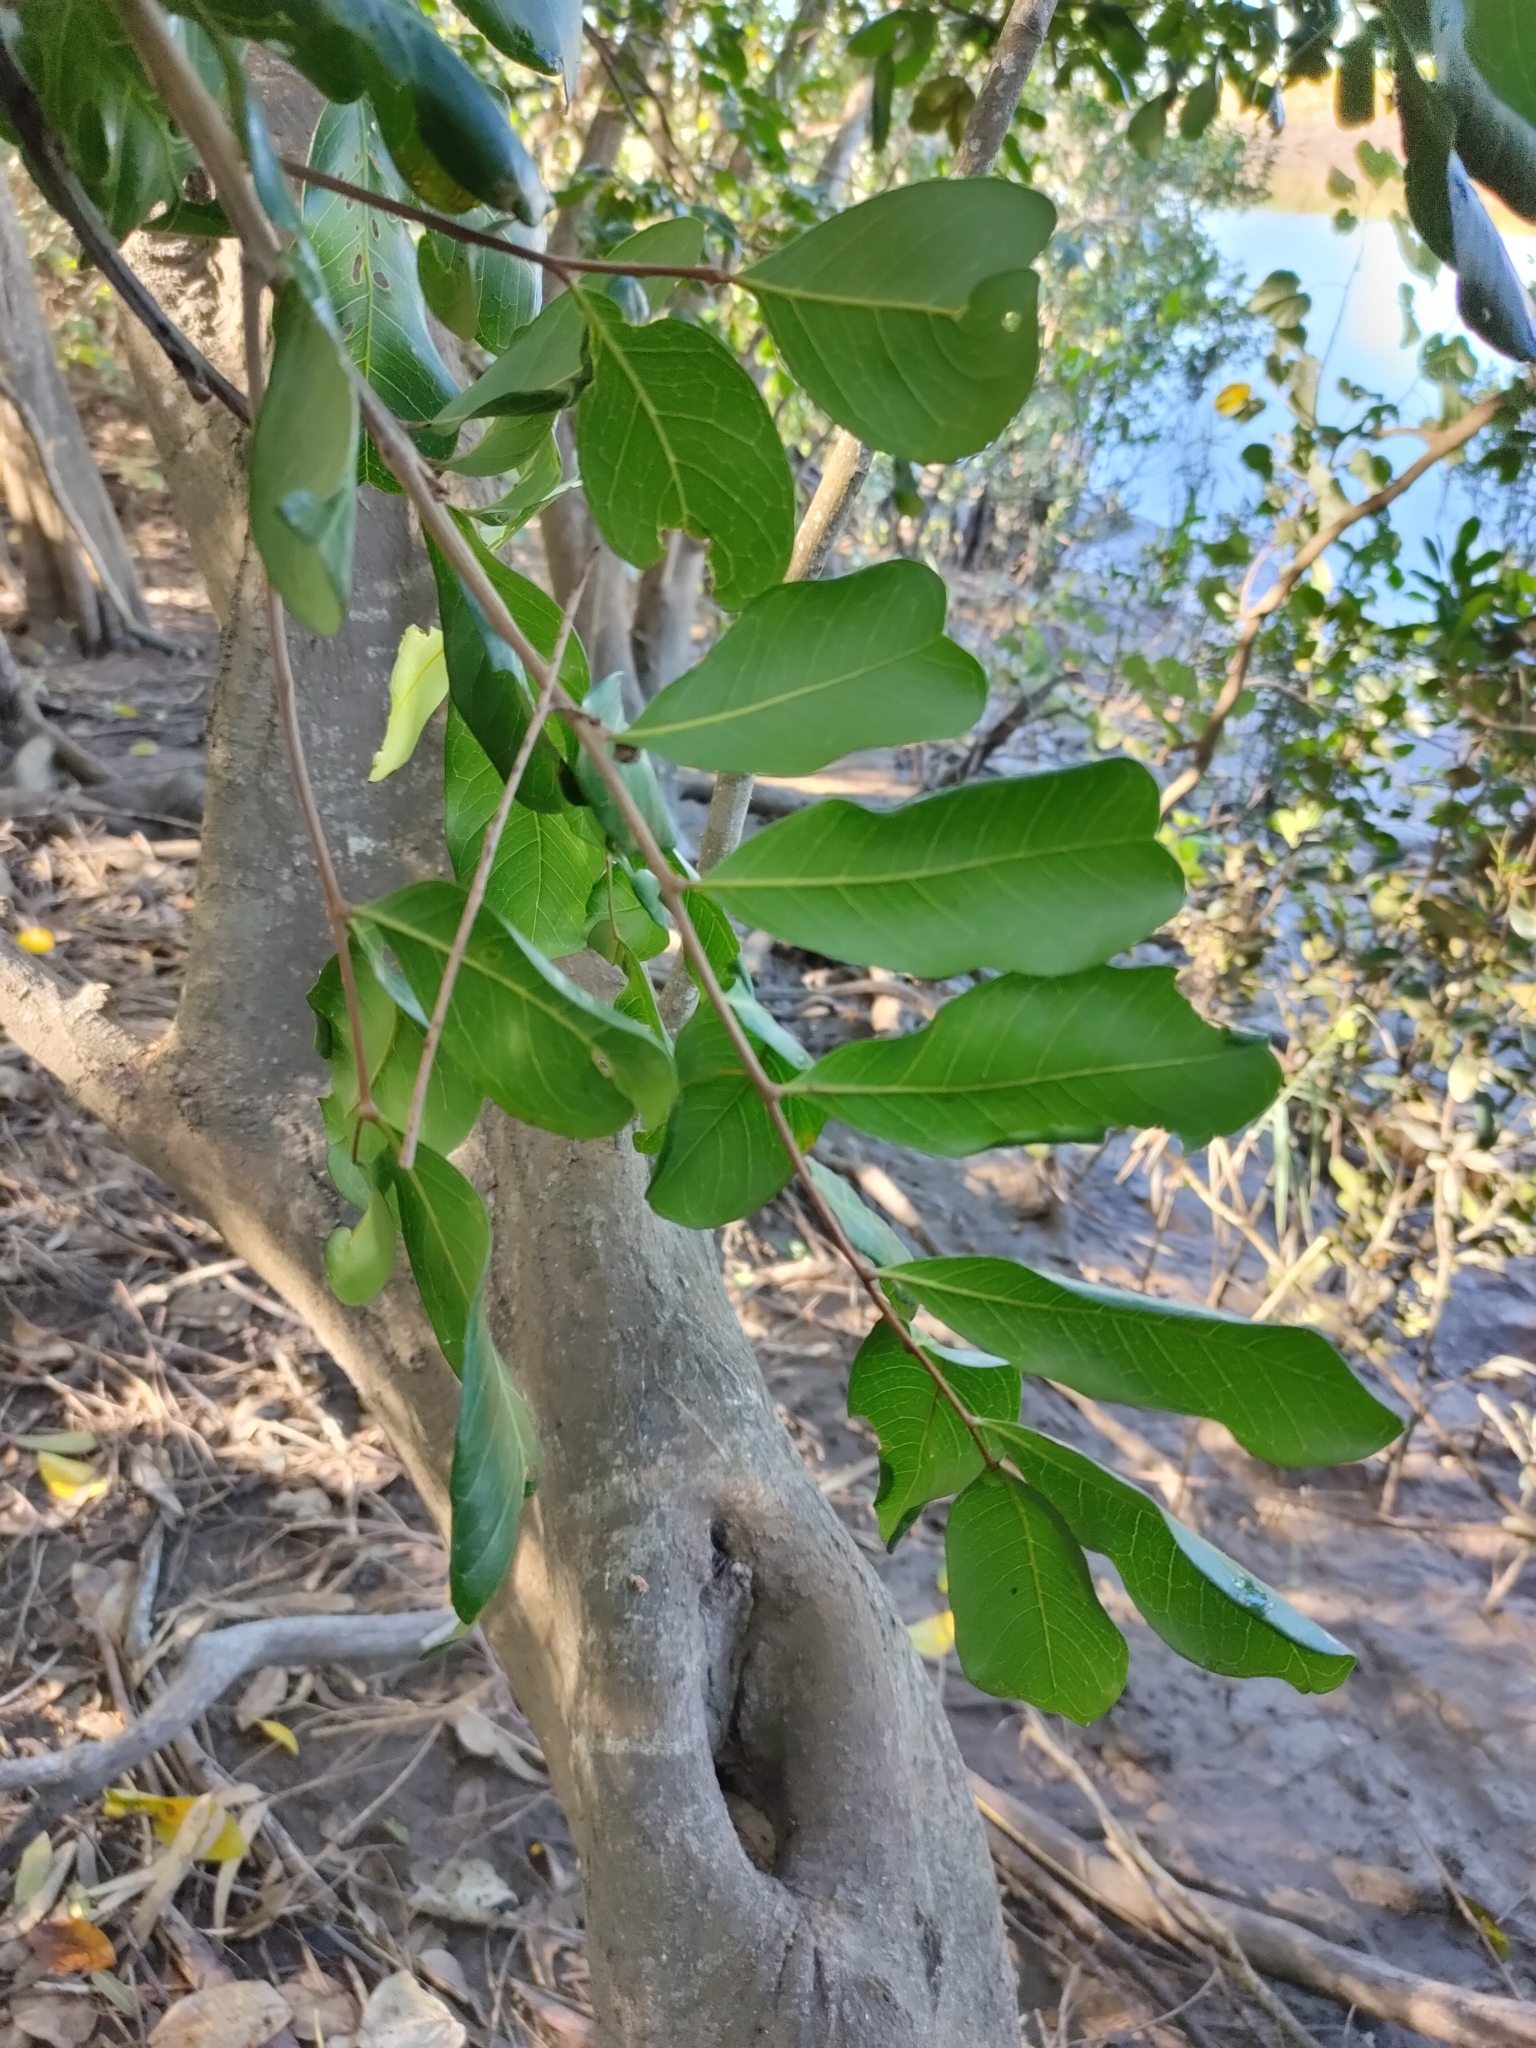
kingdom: Plantae
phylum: Tracheophyta
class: Magnoliopsida
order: Sapindales
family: Sapindaceae
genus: Cupaniopsis
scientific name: Cupaniopsis anacardioides
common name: Carrotwood
